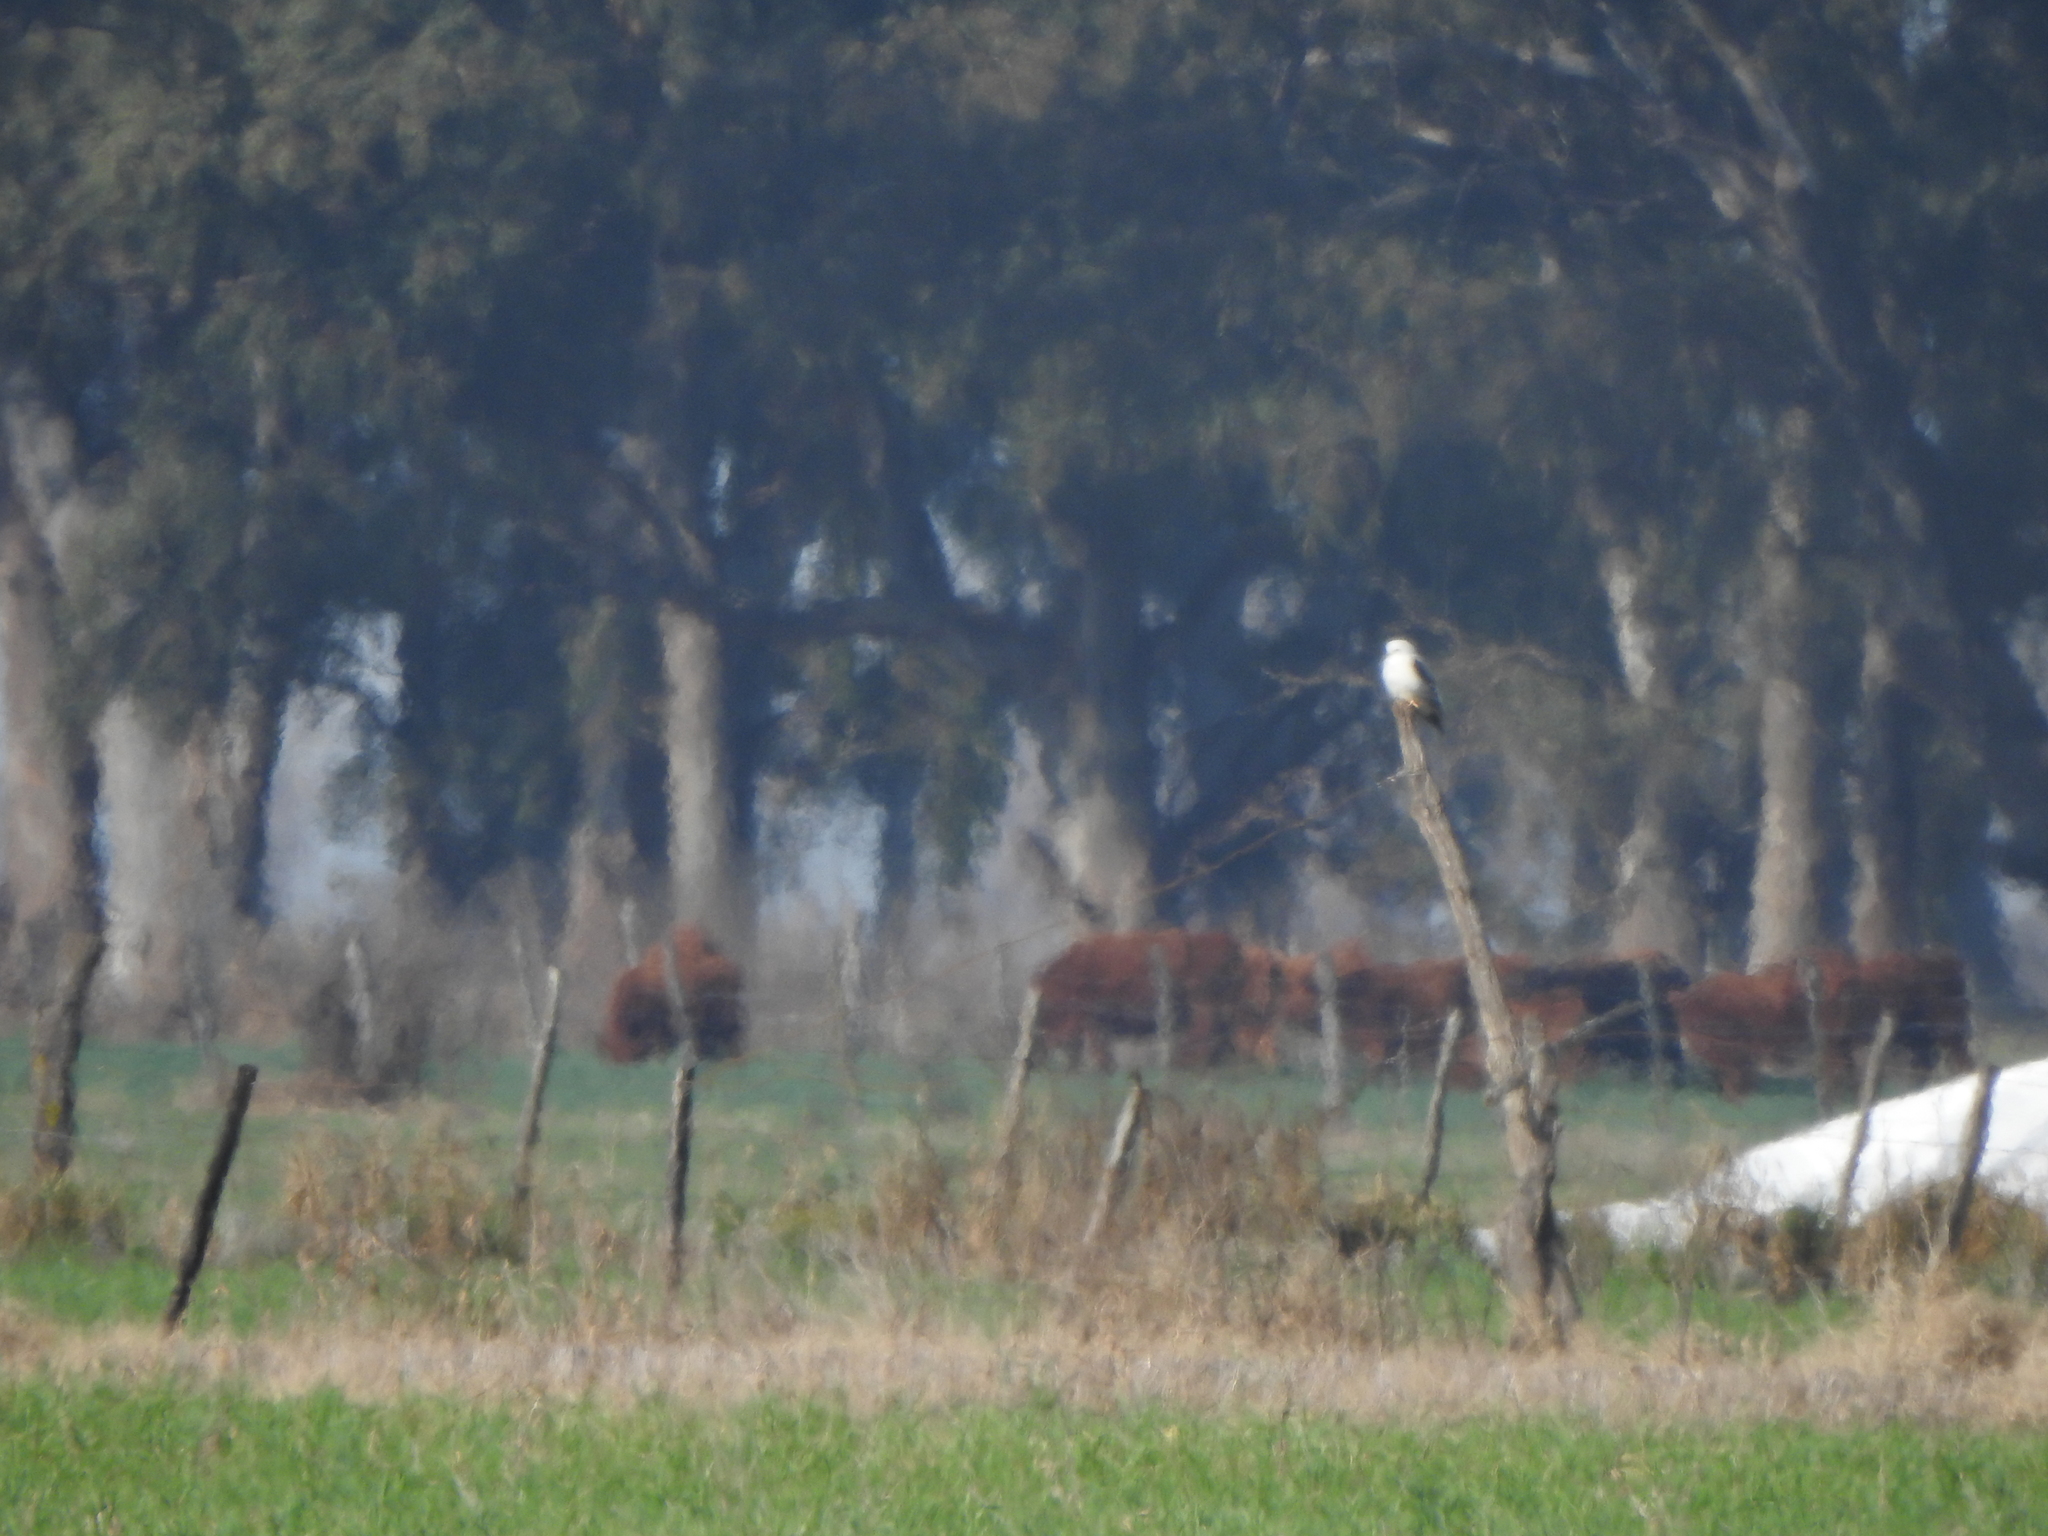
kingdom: Animalia
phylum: Chordata
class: Aves
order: Accipitriformes
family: Accipitridae
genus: Elanus
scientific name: Elanus leucurus
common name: White-tailed kite
